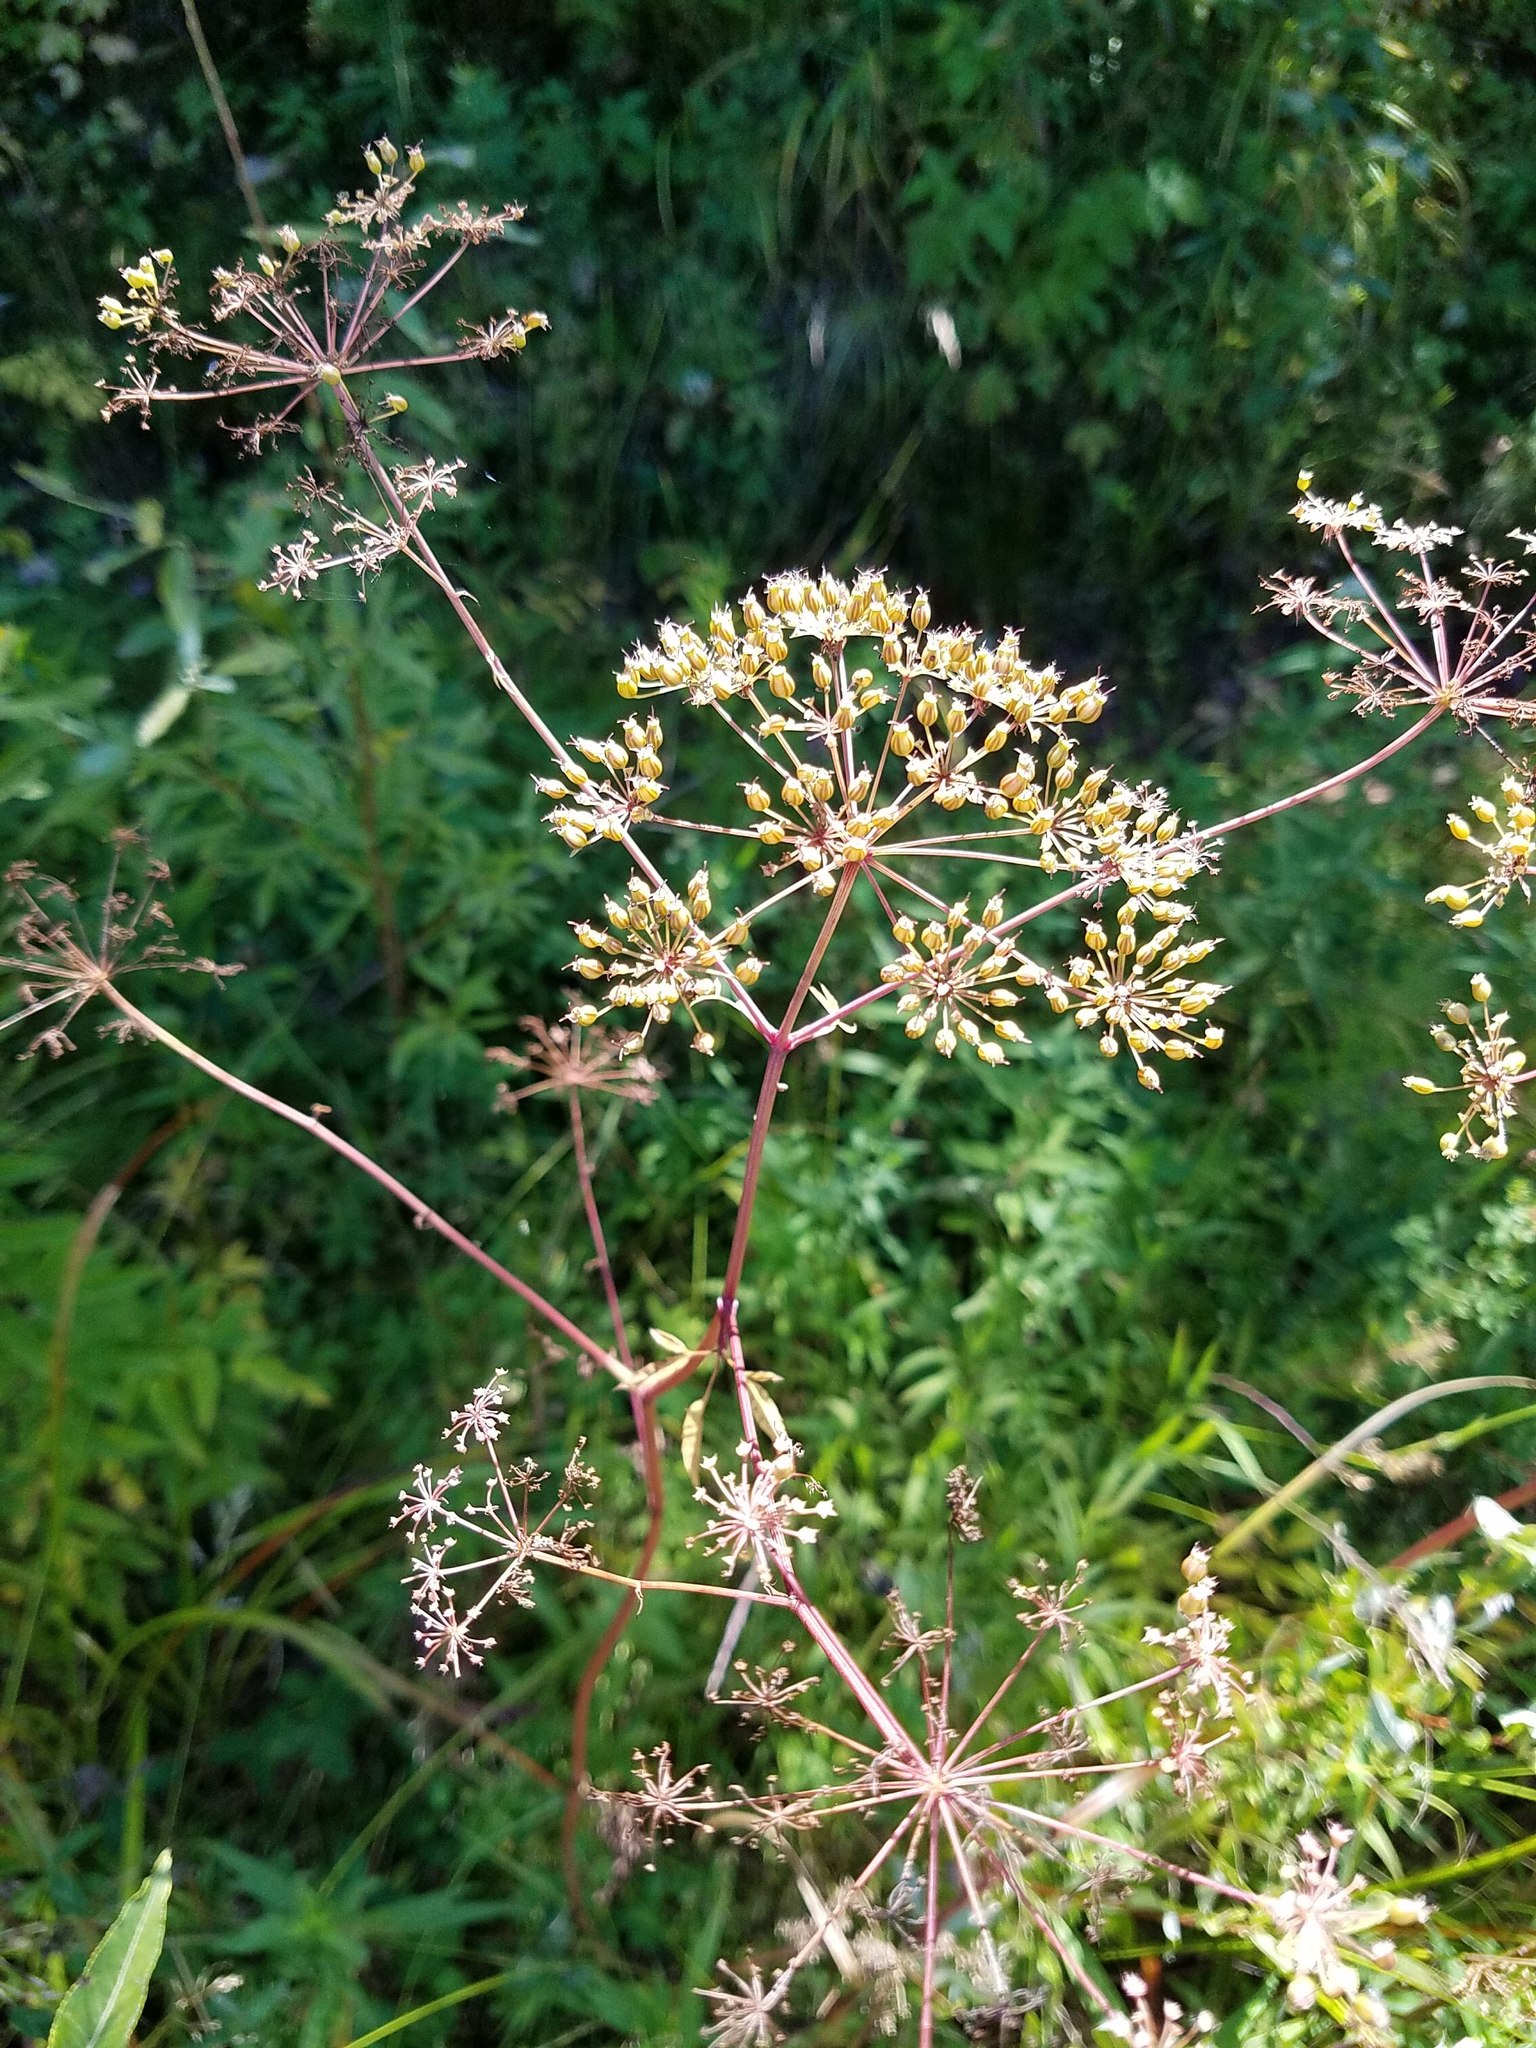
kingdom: Plantae
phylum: Tracheophyta
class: Magnoliopsida
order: Apiales
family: Apiaceae
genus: Cicuta
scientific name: Cicuta maculata
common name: Spotted cowbane
